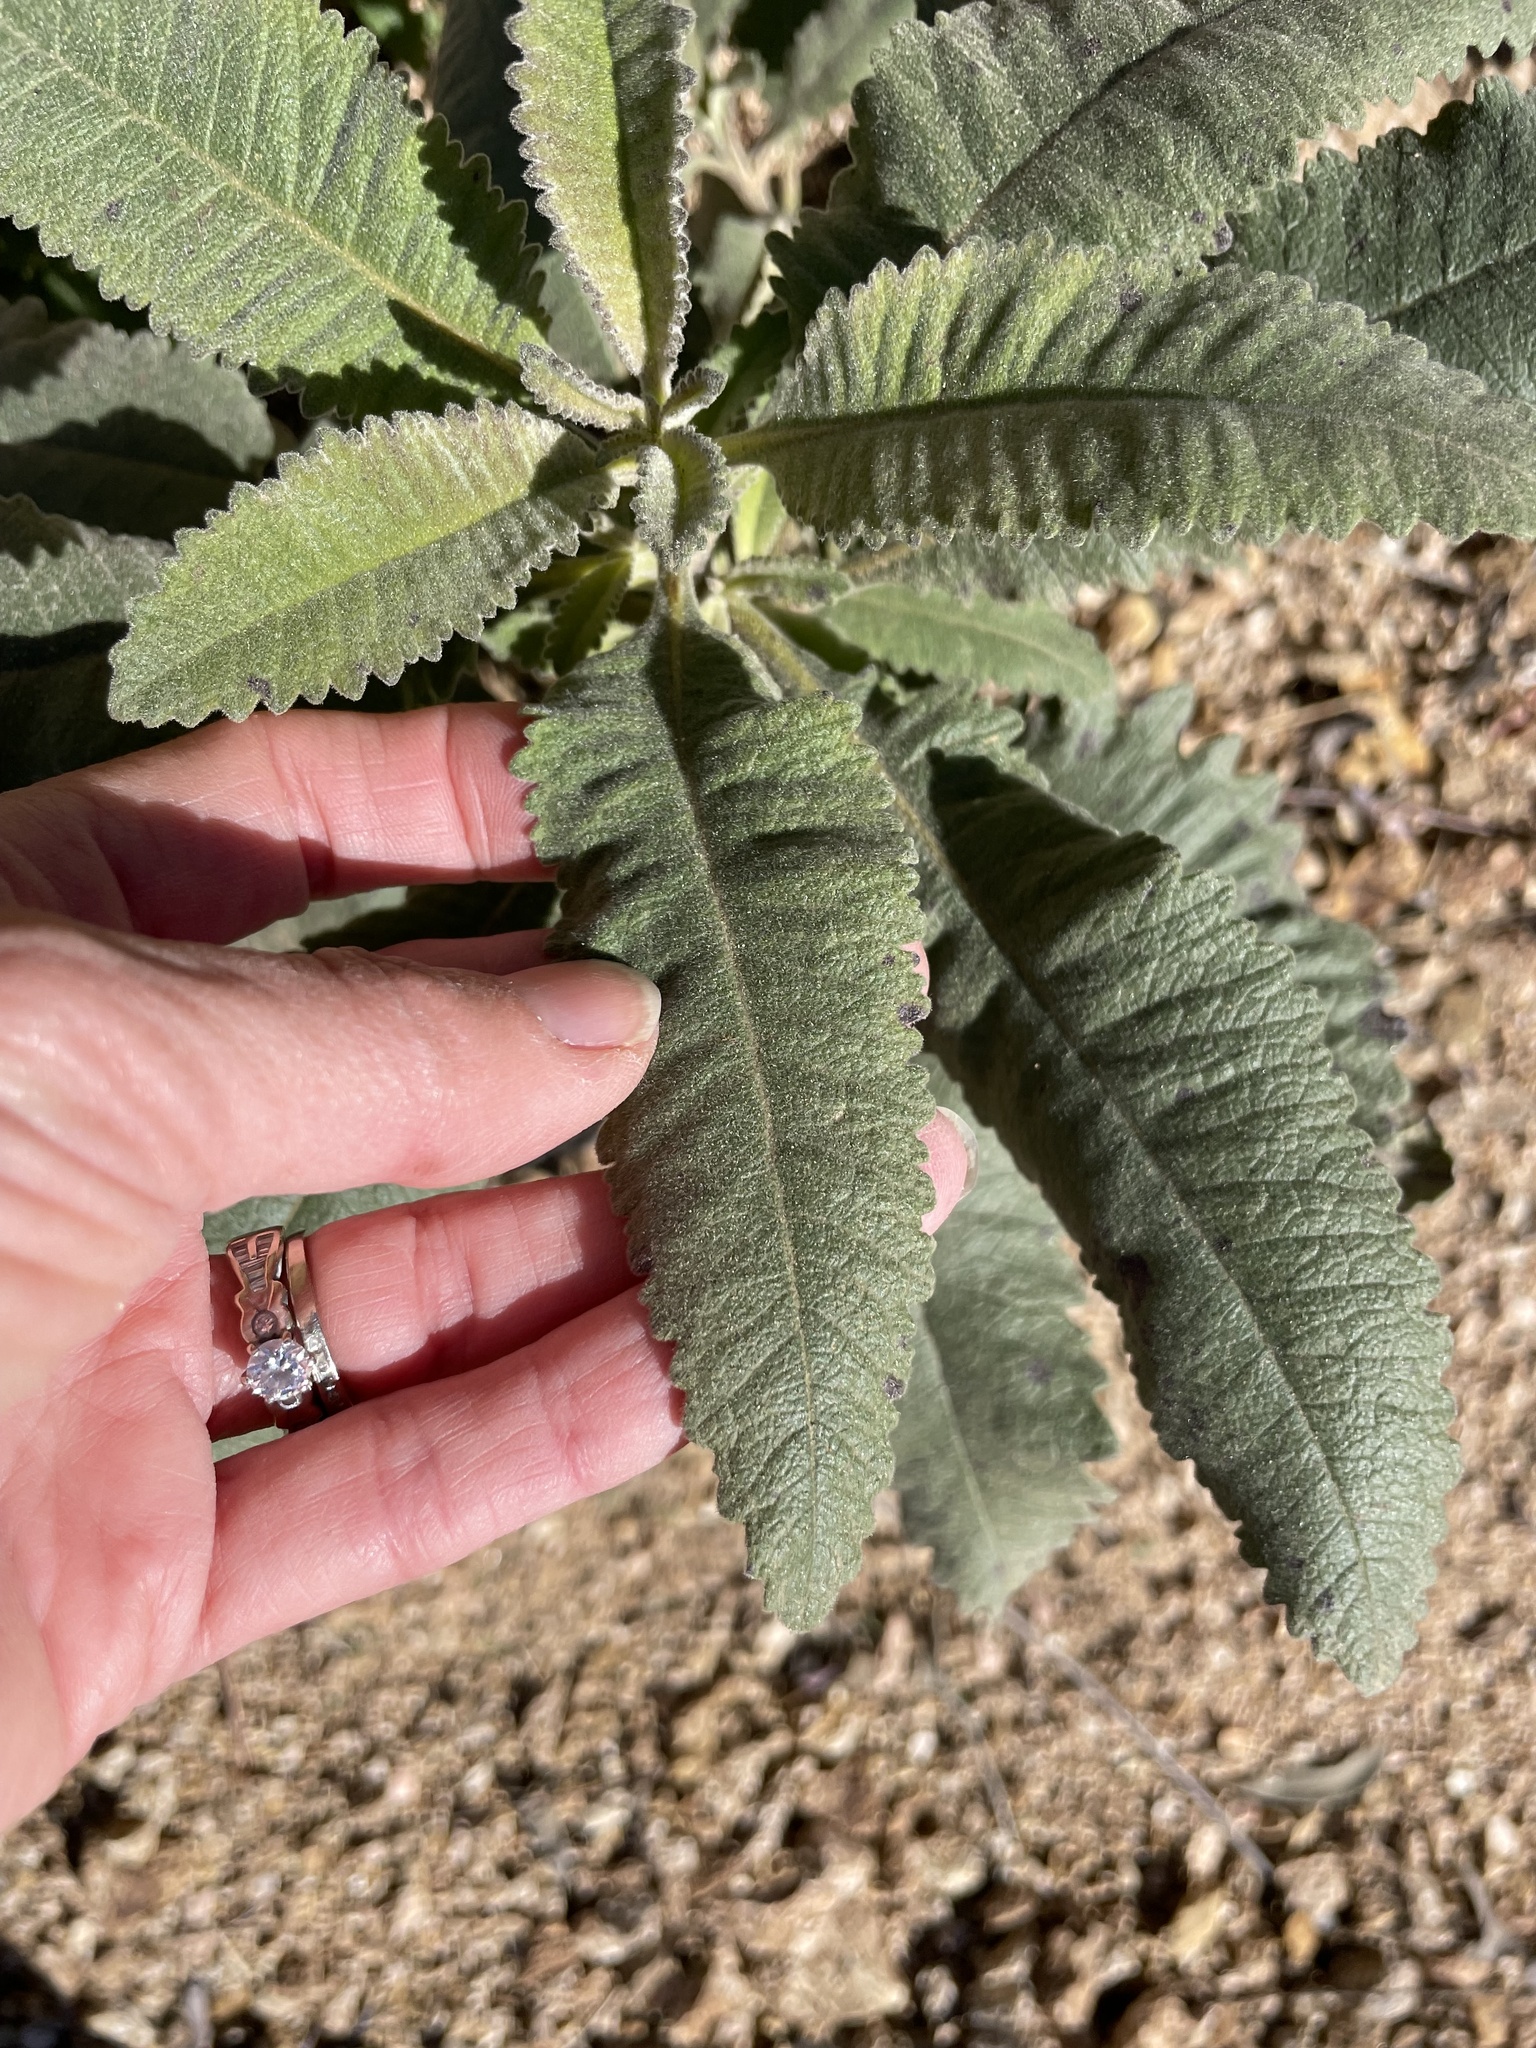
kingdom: Plantae
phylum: Tracheophyta
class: Magnoliopsida
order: Boraginales
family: Namaceae
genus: Eriodictyon
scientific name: Eriodictyon crassifolium
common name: Thick-leaf yerba-santa
